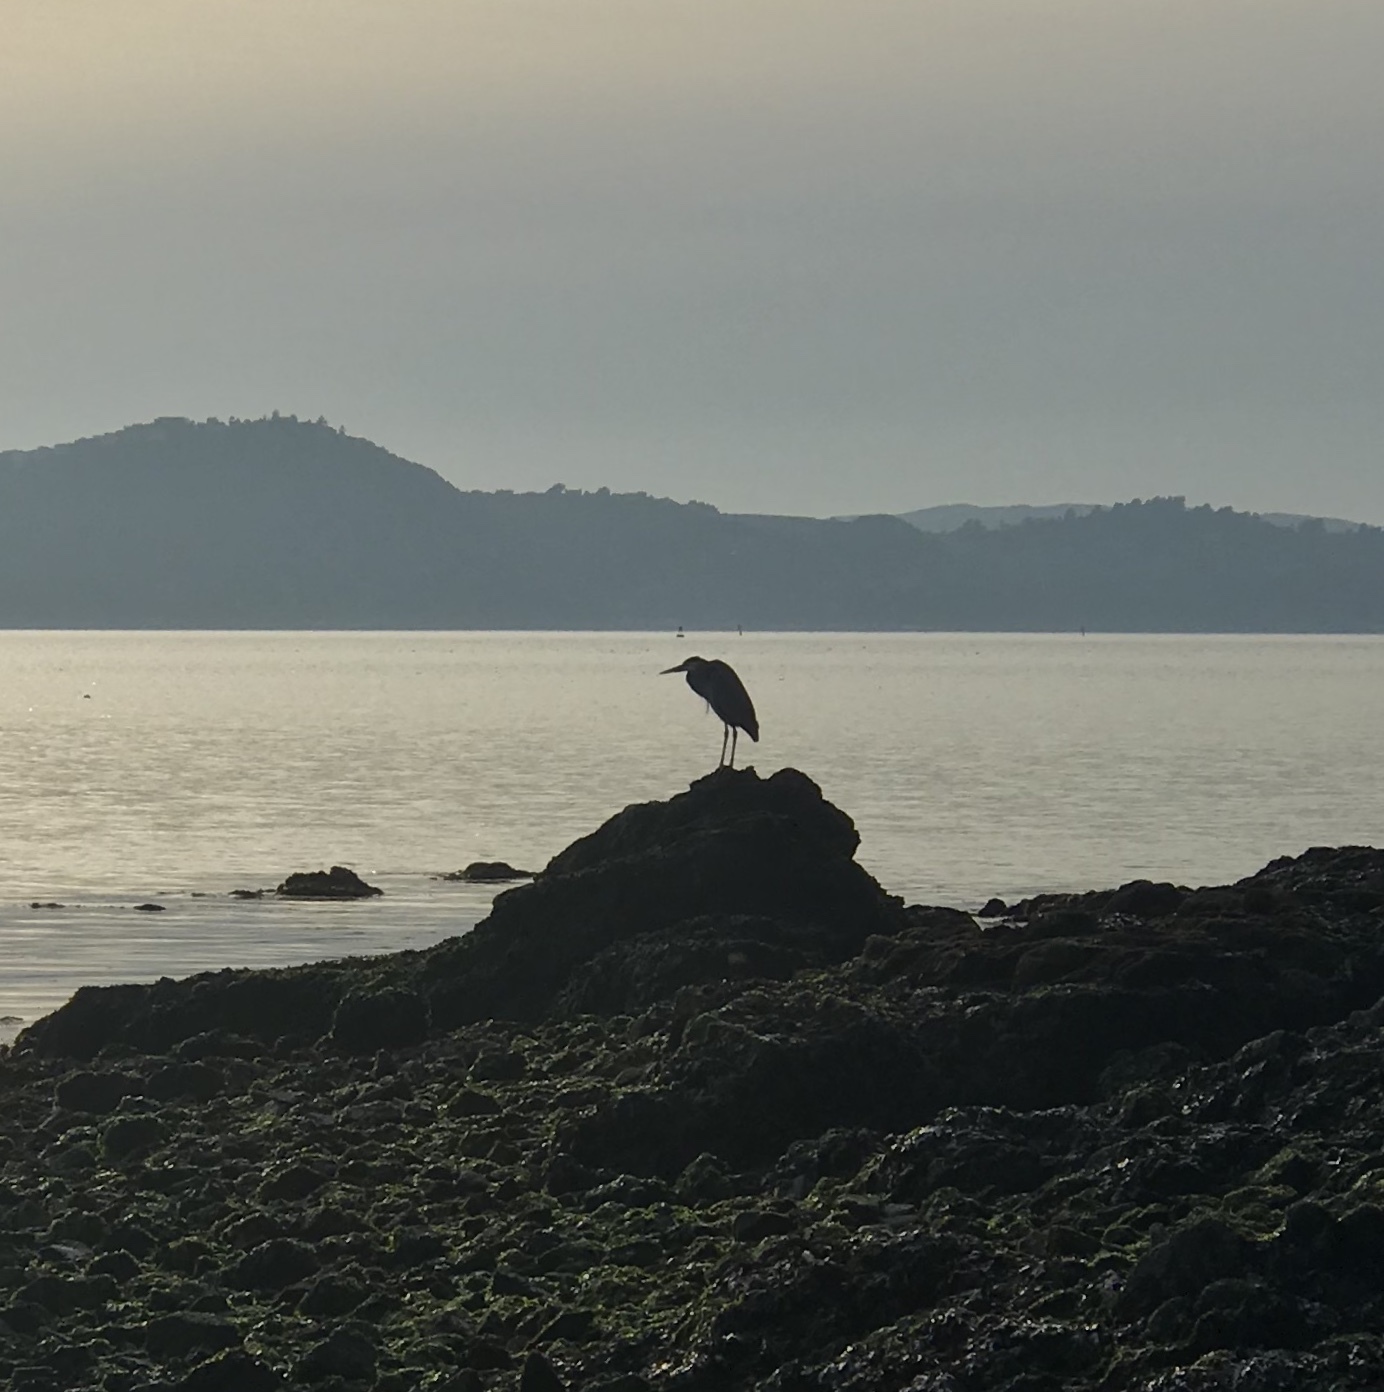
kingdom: Animalia
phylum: Chordata
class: Aves
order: Pelecaniformes
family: Ardeidae
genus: Ardea
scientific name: Ardea herodias
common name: Great blue heron
